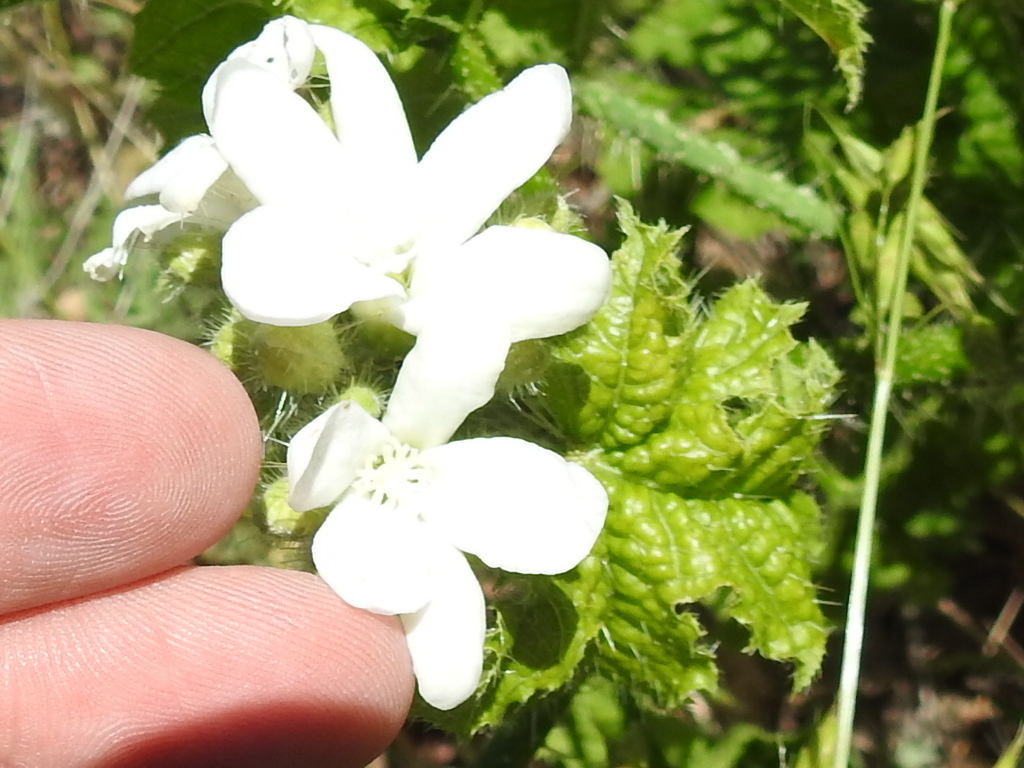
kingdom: Plantae
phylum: Tracheophyta
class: Magnoliopsida
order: Malpighiales
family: Euphorbiaceae
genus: Cnidoscolus
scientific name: Cnidoscolus texanus
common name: Texas bull-nettle
